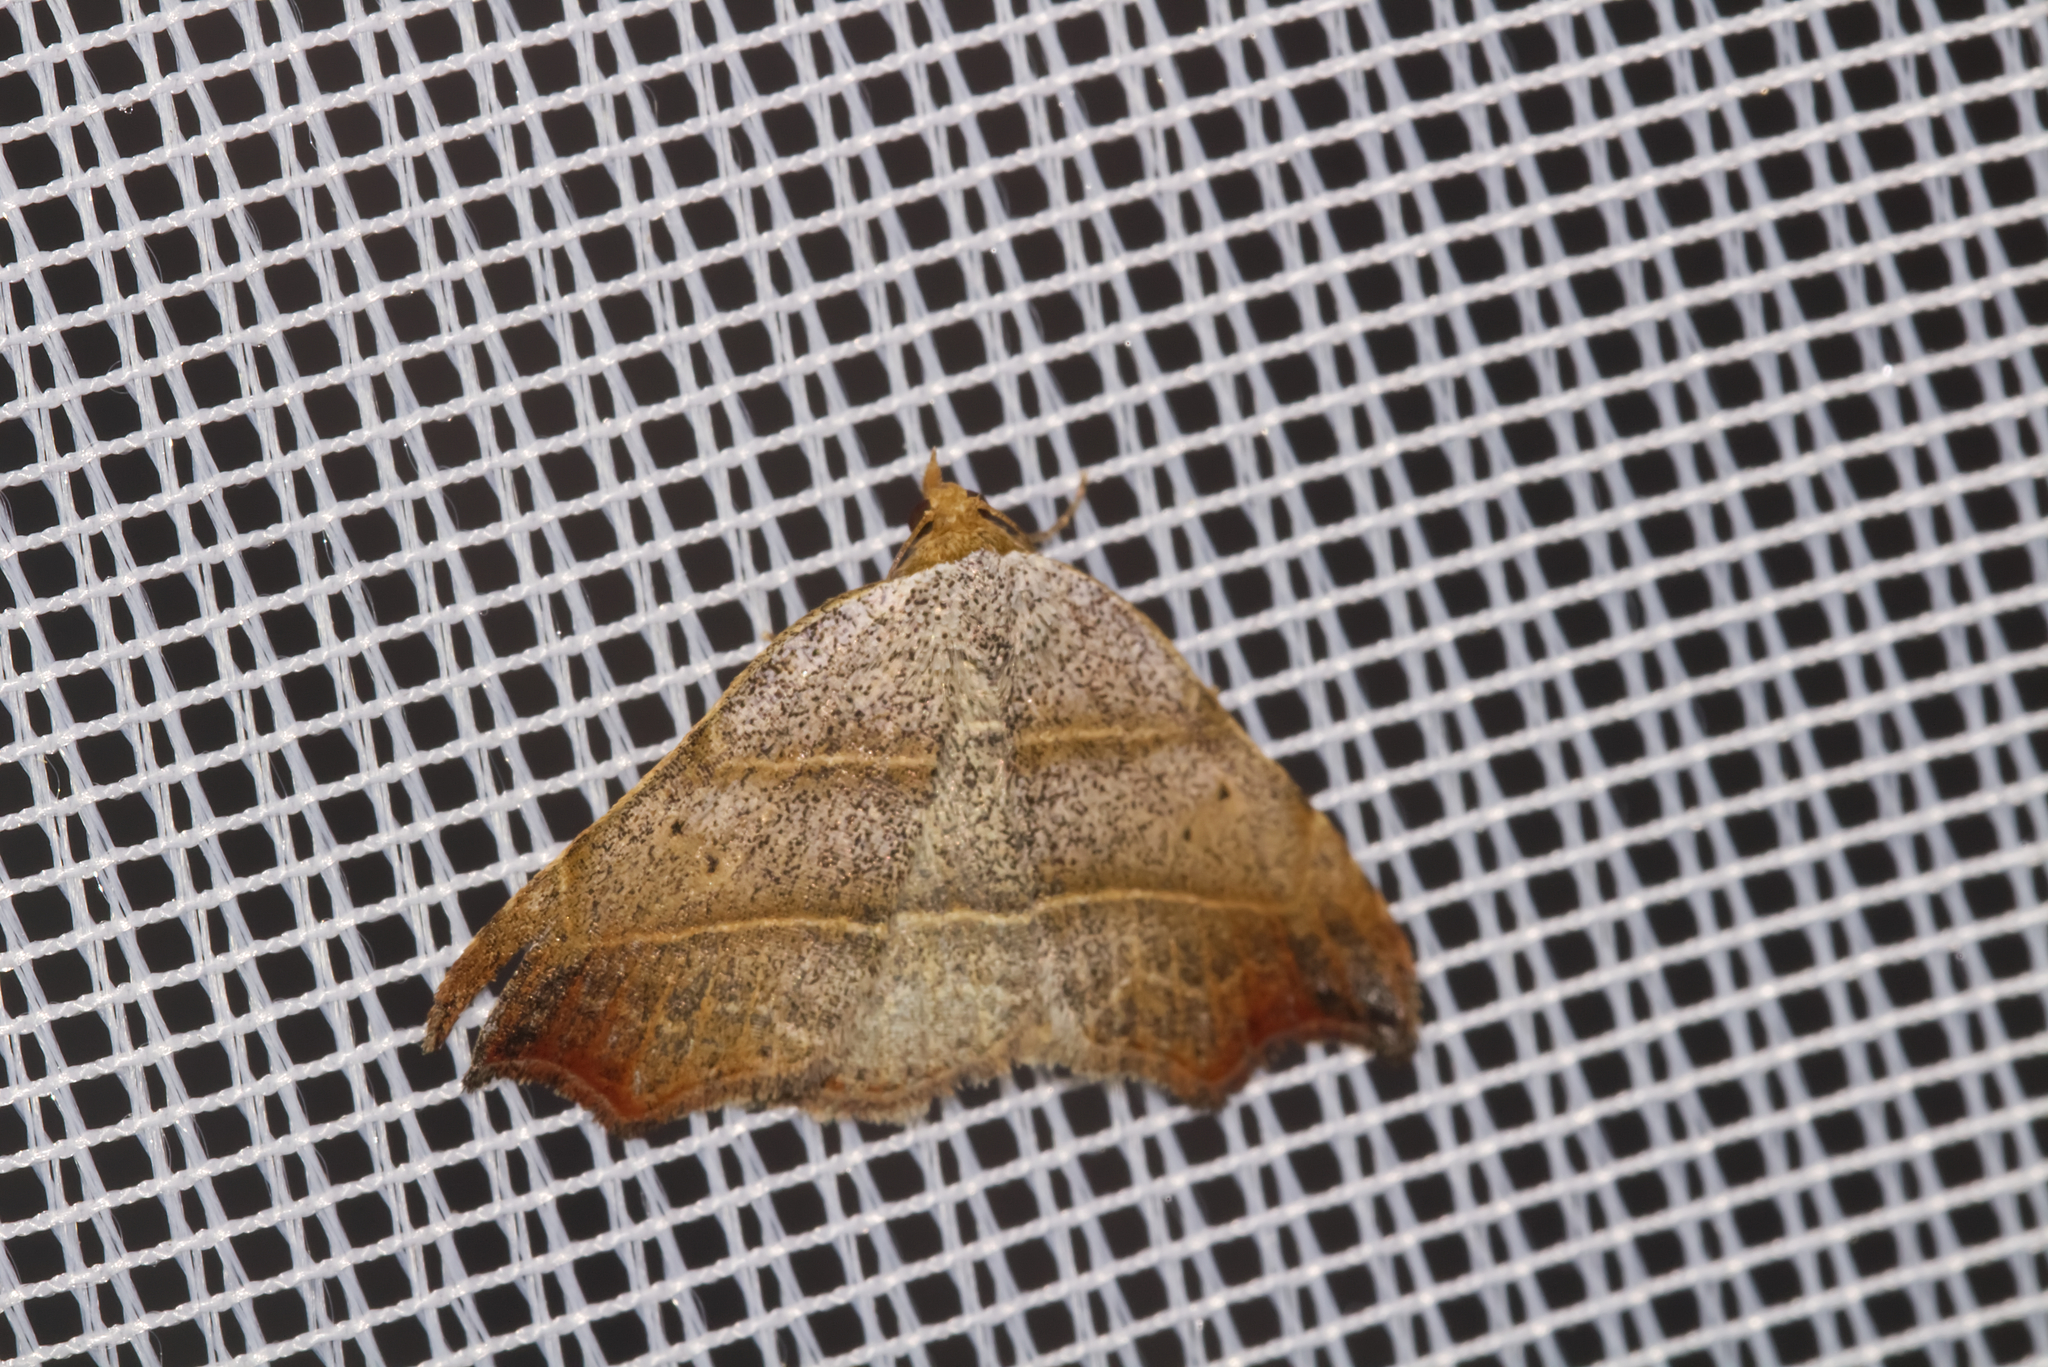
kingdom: Animalia
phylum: Arthropoda
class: Insecta
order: Lepidoptera
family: Erebidae
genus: Laspeyria
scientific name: Laspeyria flexula
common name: Beautiful hook-tip
